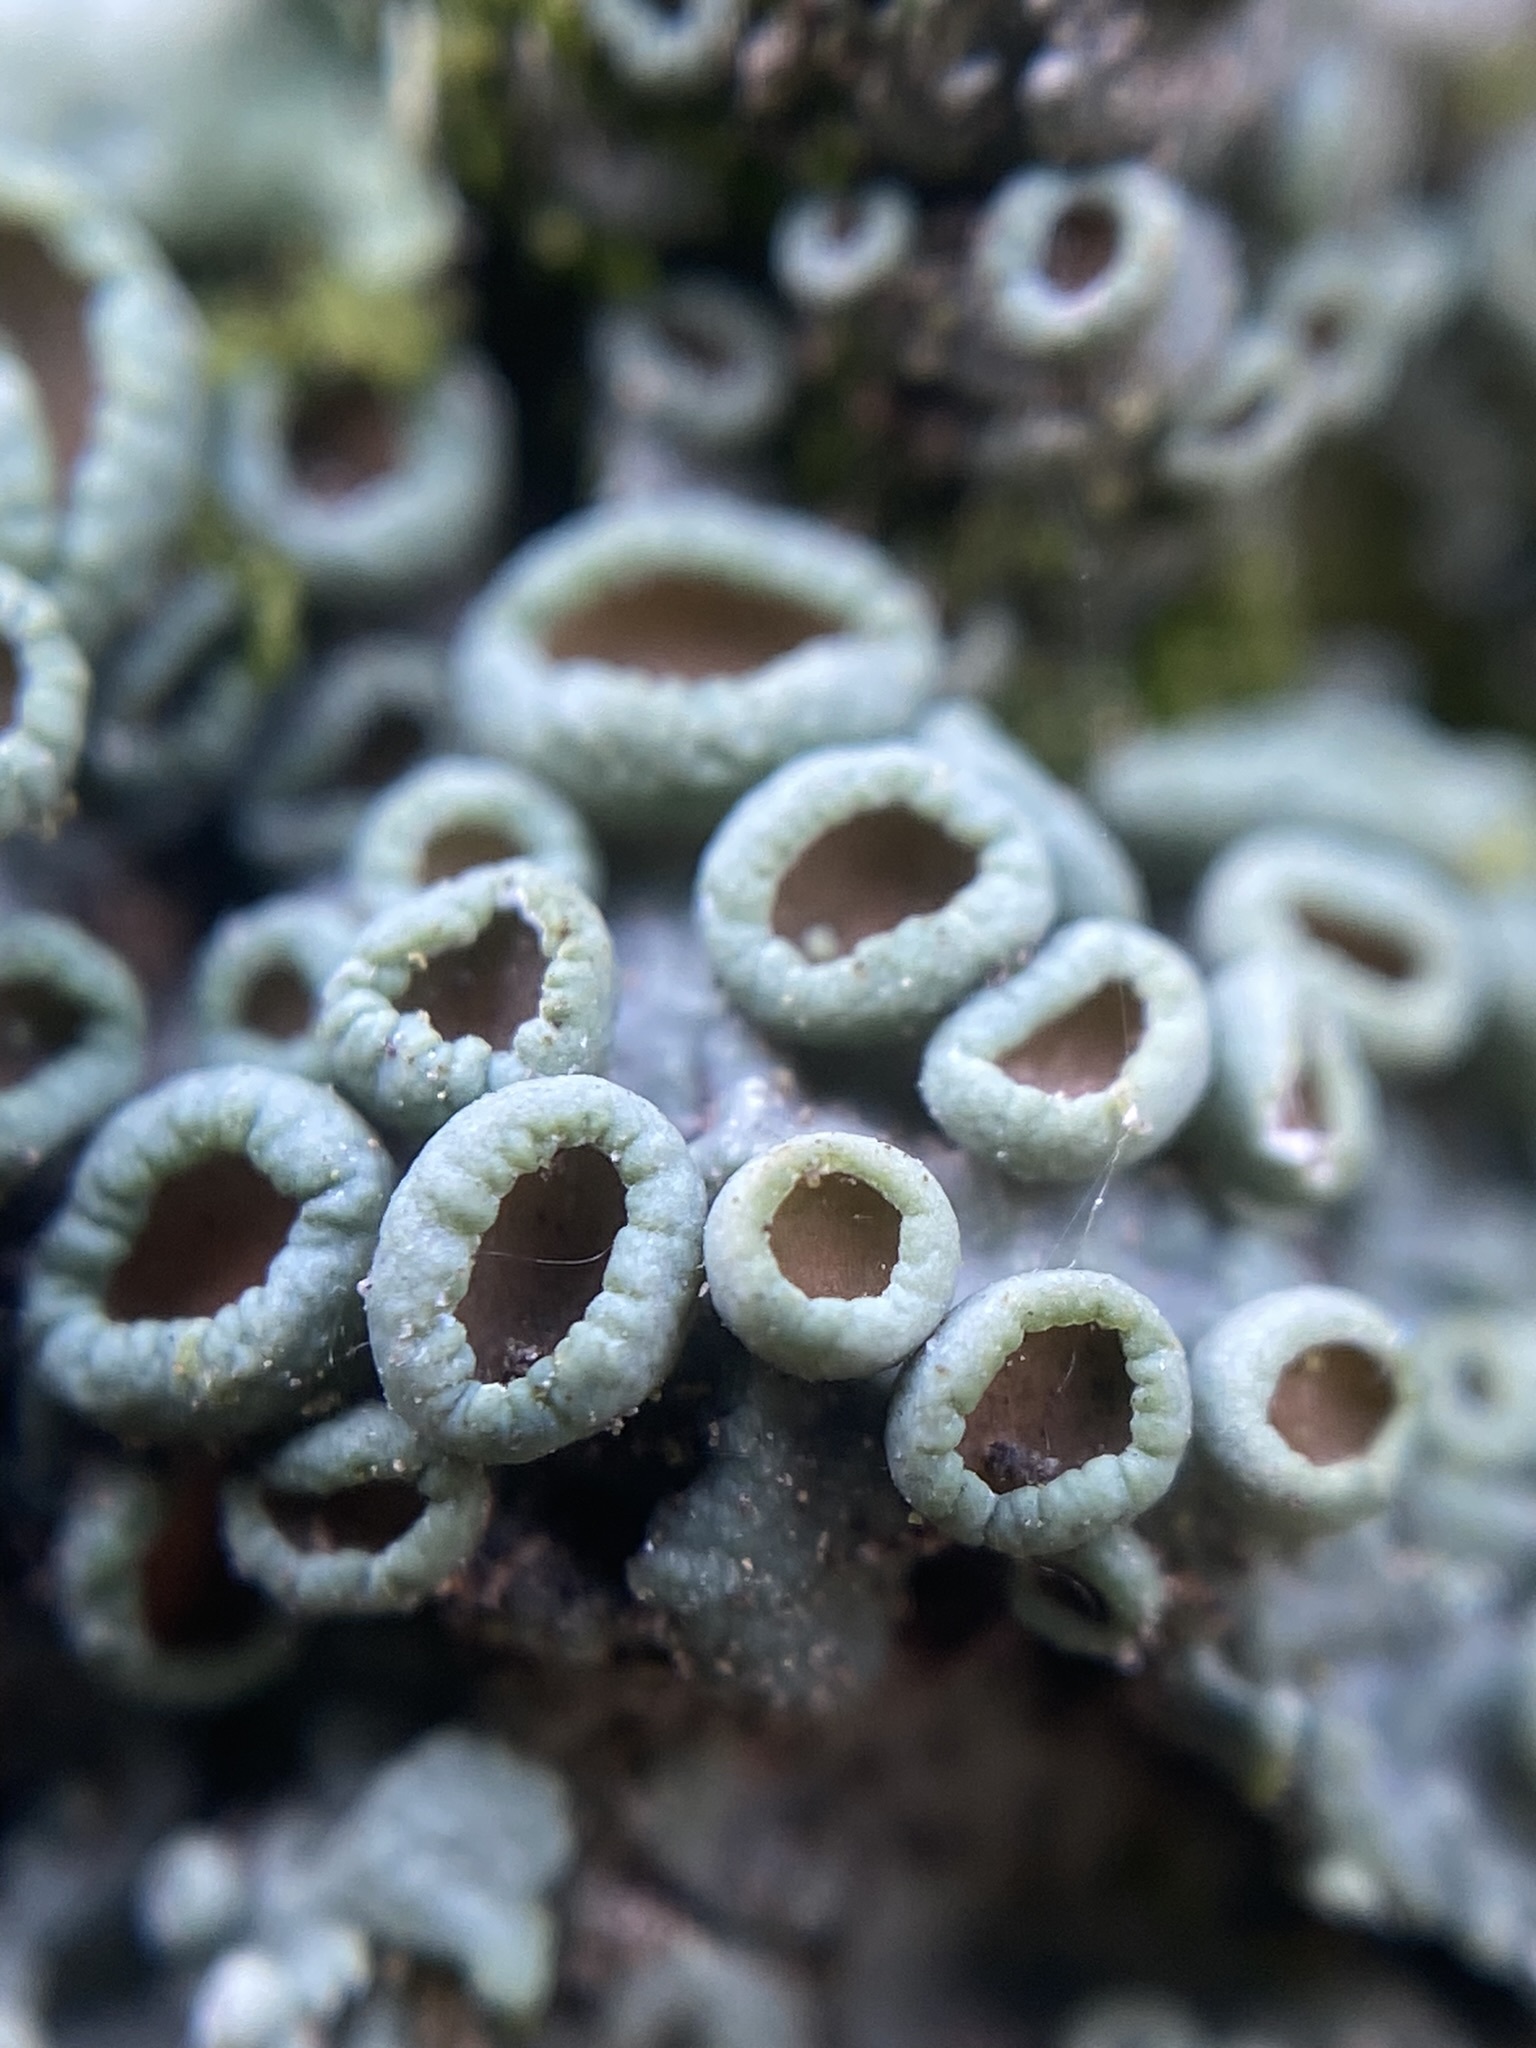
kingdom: Fungi
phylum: Ascomycota
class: Lecanoromycetes
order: Caliciales
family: Physciaceae
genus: Physcia
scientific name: Physcia stellaris
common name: Star rosette lichen
